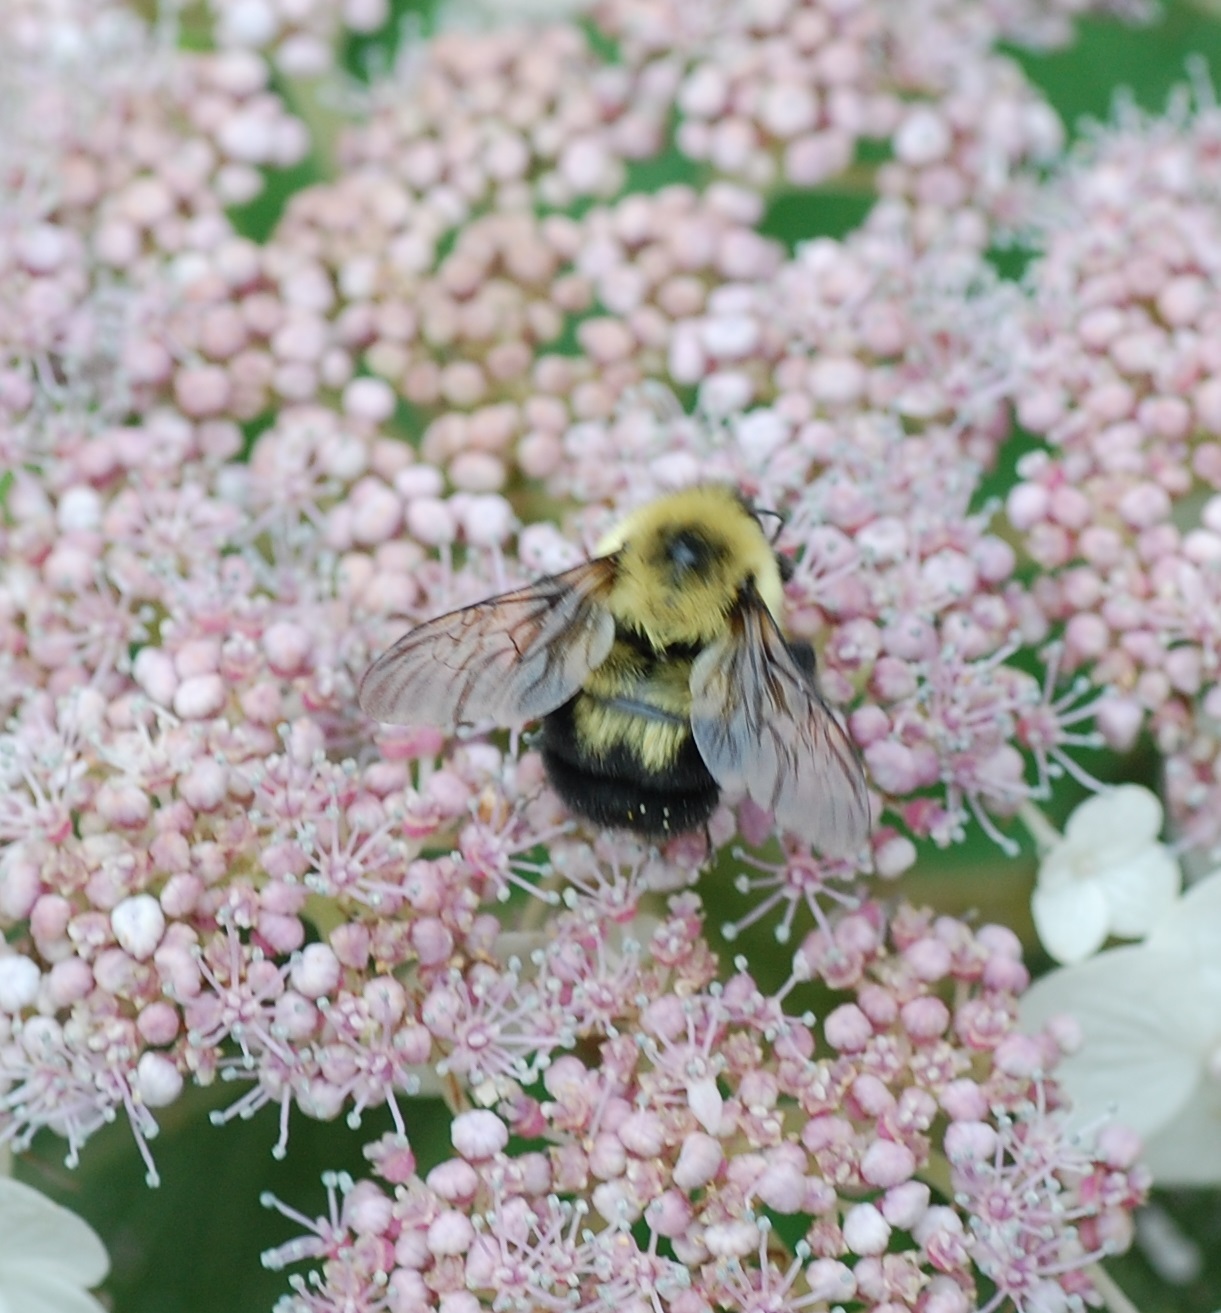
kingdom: Animalia
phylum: Arthropoda
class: Insecta
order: Hymenoptera
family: Apidae
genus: Bombus
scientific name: Bombus bimaculatus
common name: Two-spotted bumble bee
